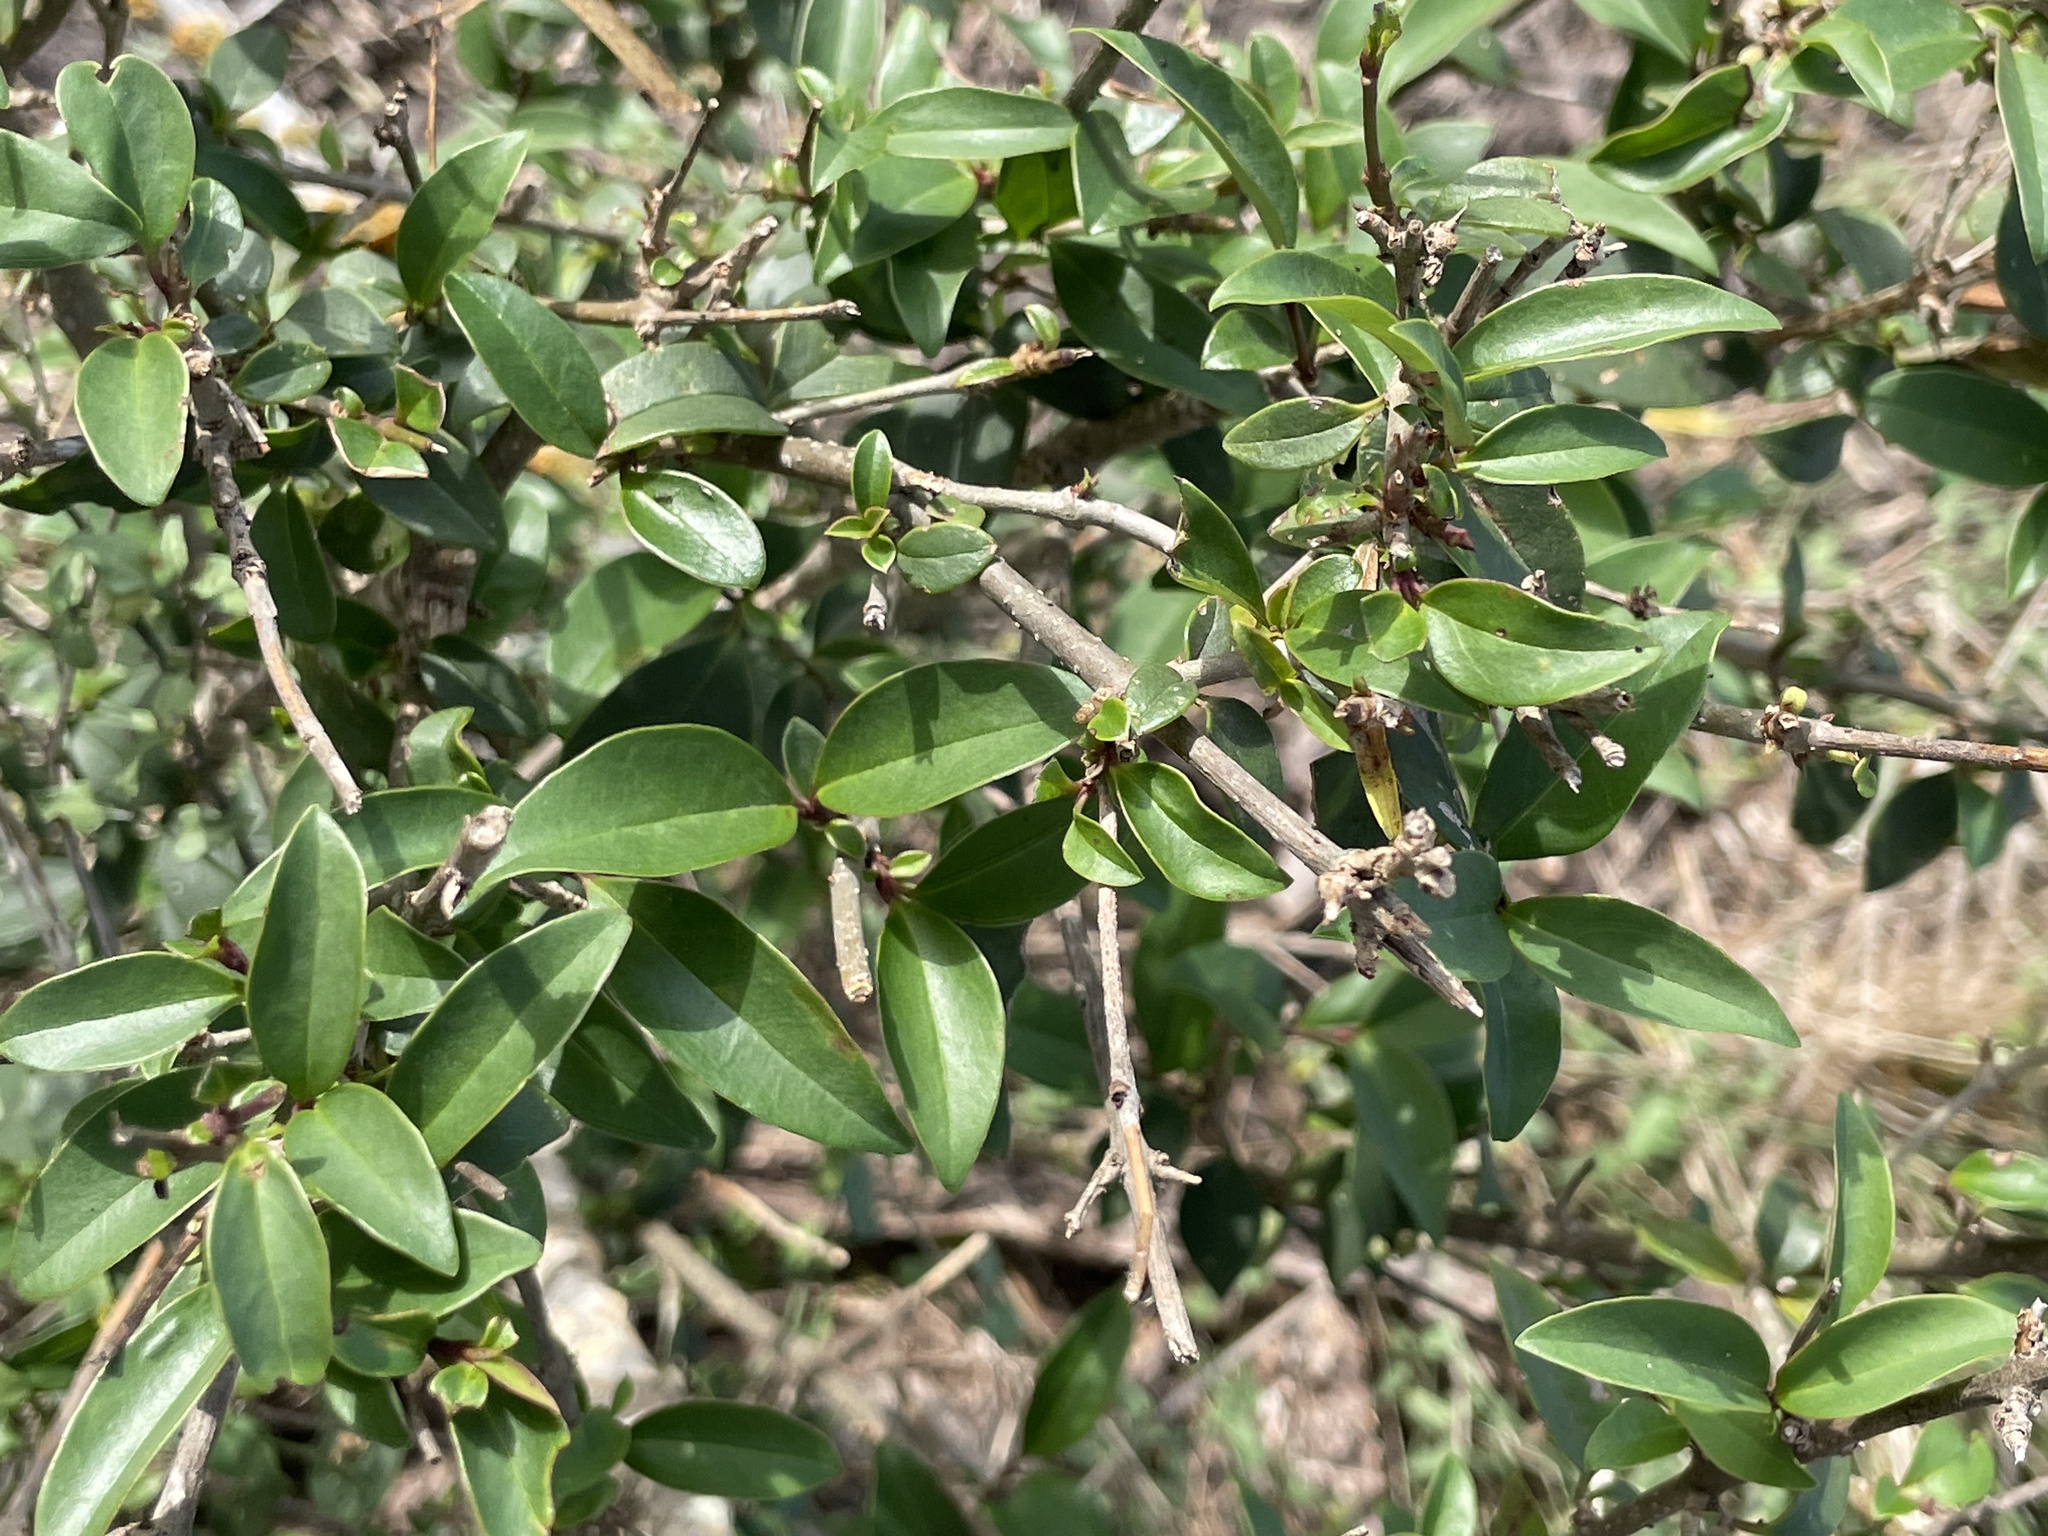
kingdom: Plantae
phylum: Tracheophyta
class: Magnoliopsida
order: Malpighiales
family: Malpighiaceae
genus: Malpighia
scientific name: Malpighia glabra
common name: Barbados cherry
